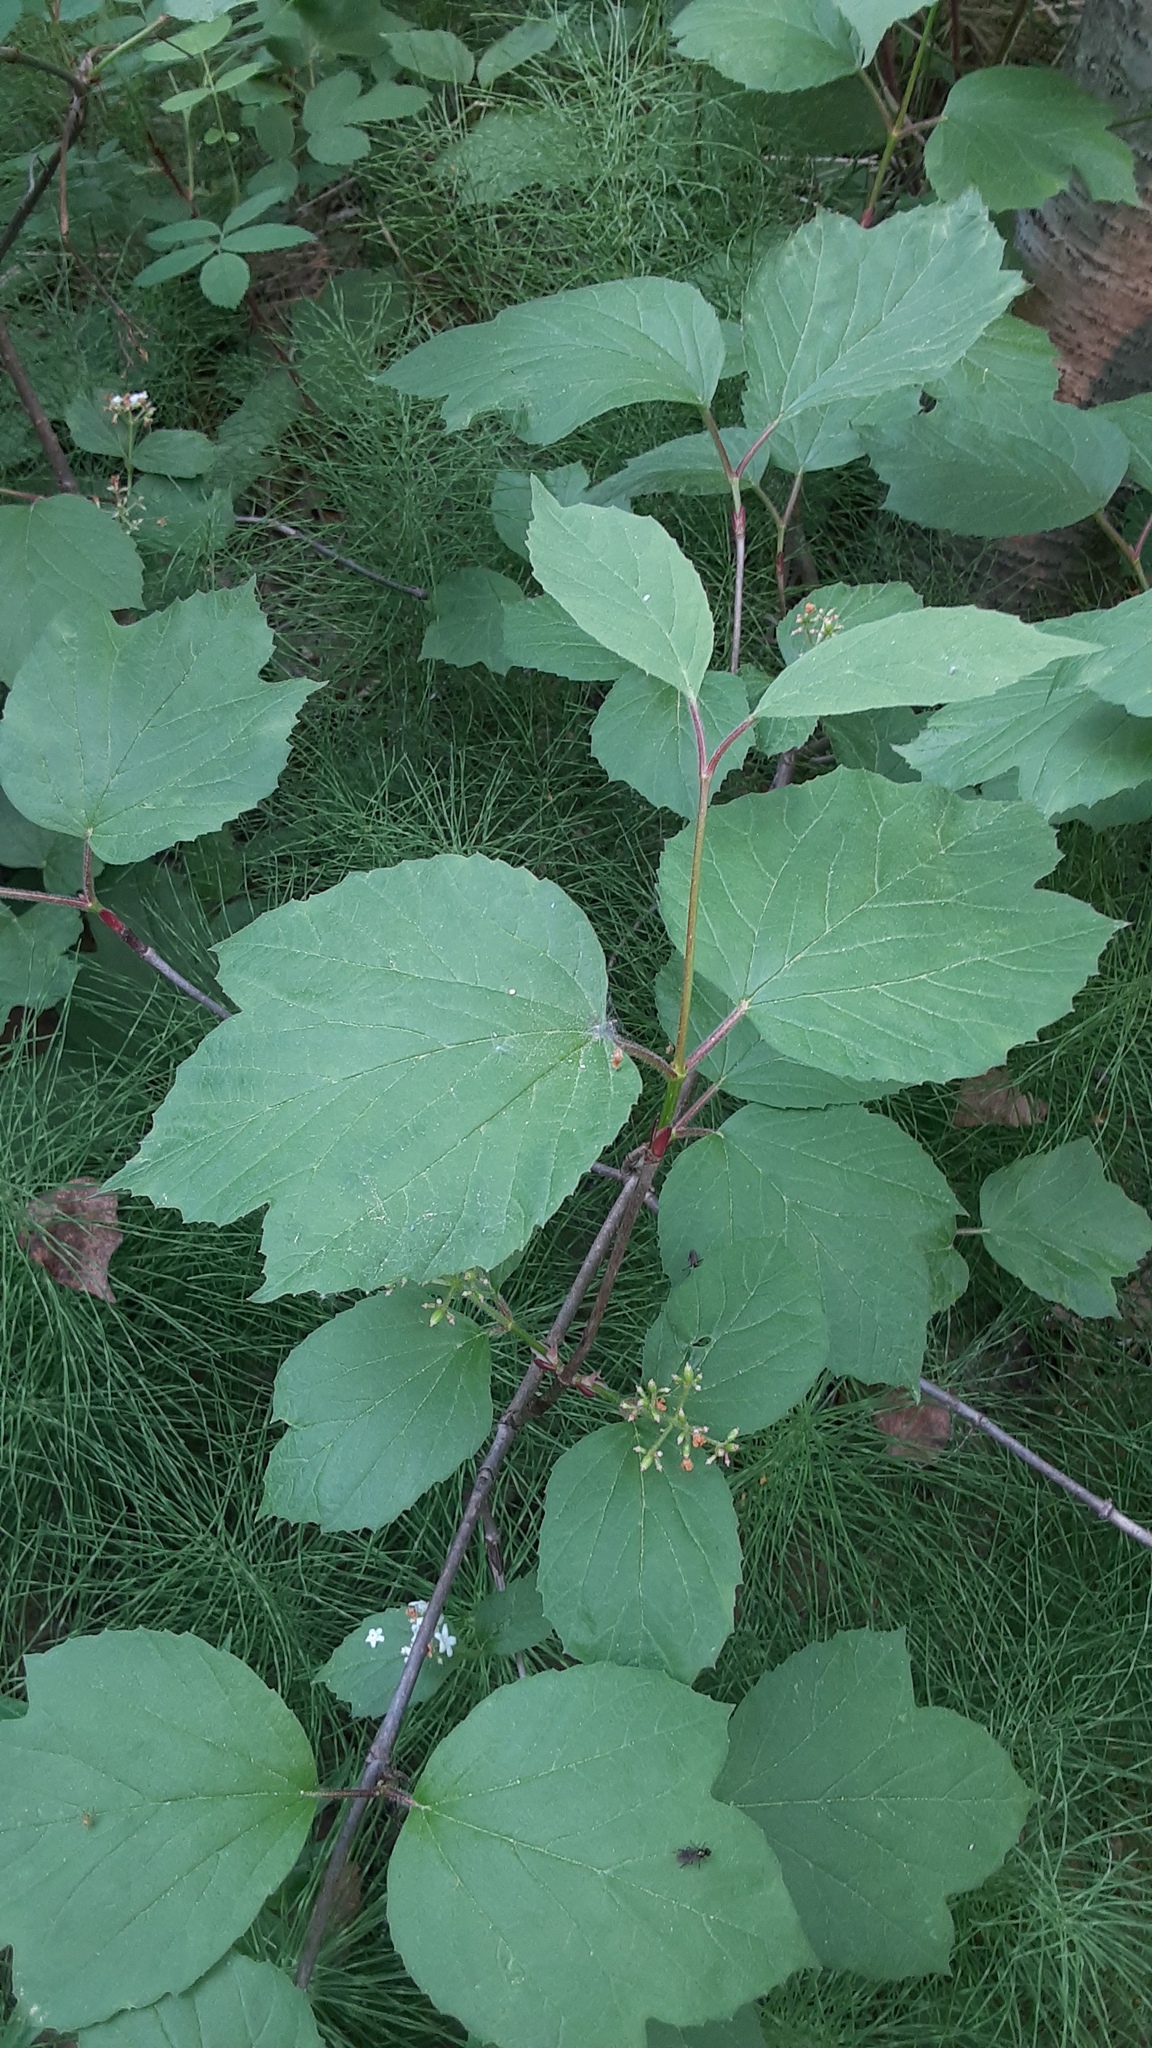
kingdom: Plantae
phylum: Tracheophyta
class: Magnoliopsida
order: Dipsacales
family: Viburnaceae
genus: Viburnum
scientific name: Viburnum edule
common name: Mooseberry
